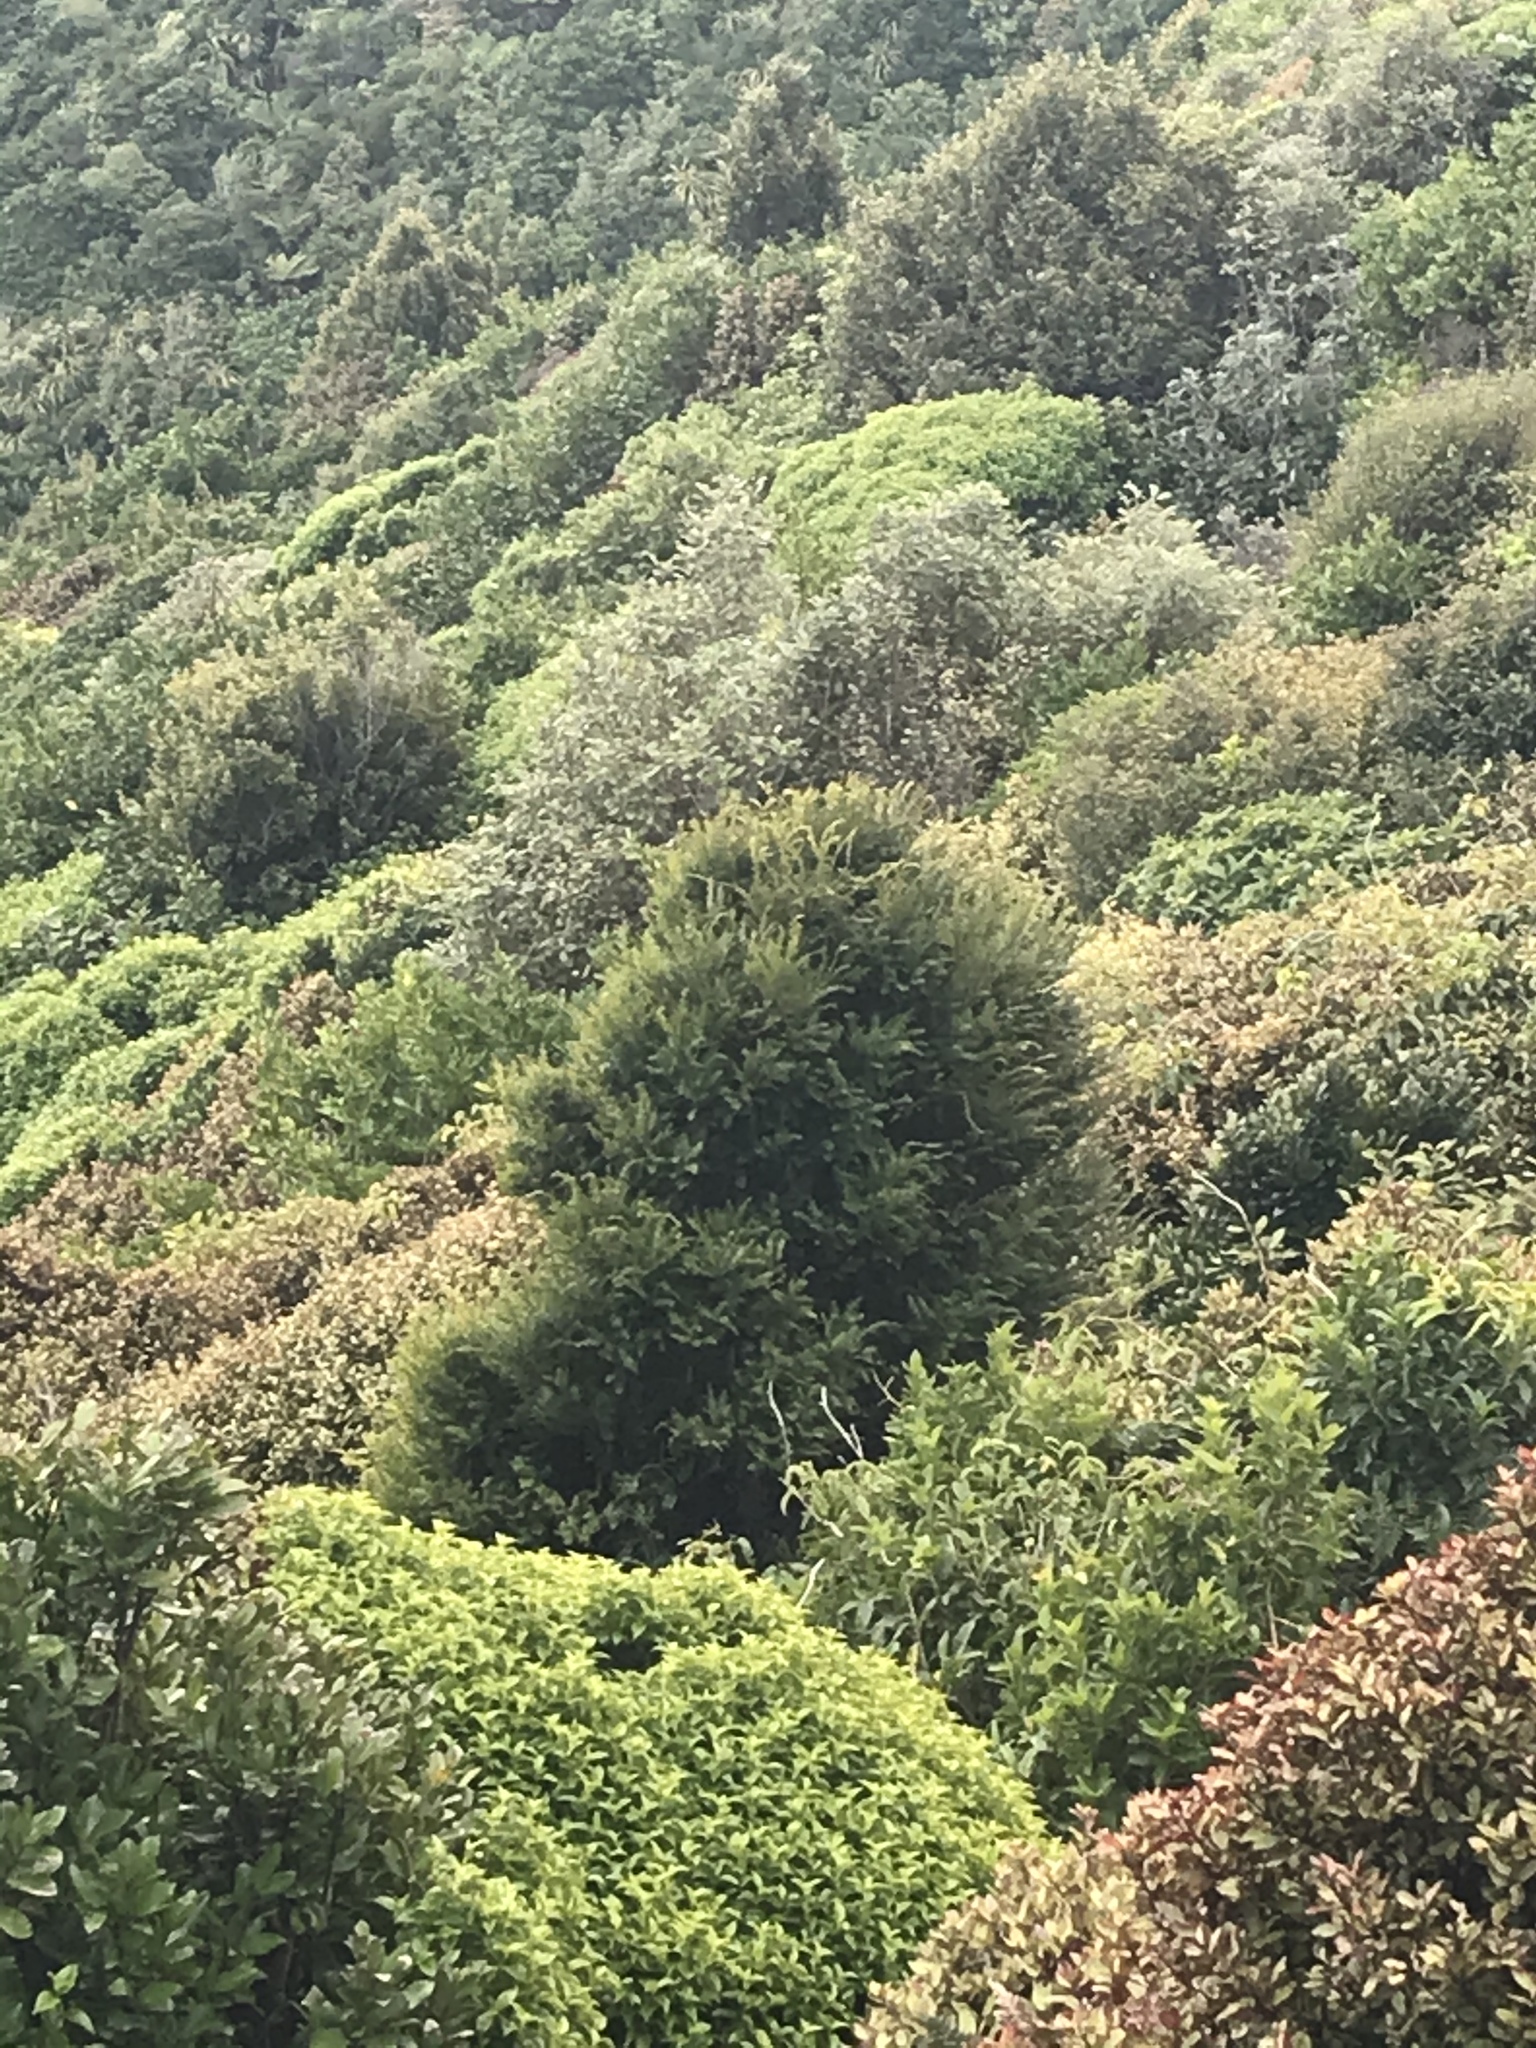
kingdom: Plantae
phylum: Tracheophyta
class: Pinopsida
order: Pinales
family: Podocarpaceae
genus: Prumnopitys
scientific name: Prumnopitys ferruginea
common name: Brown pine
